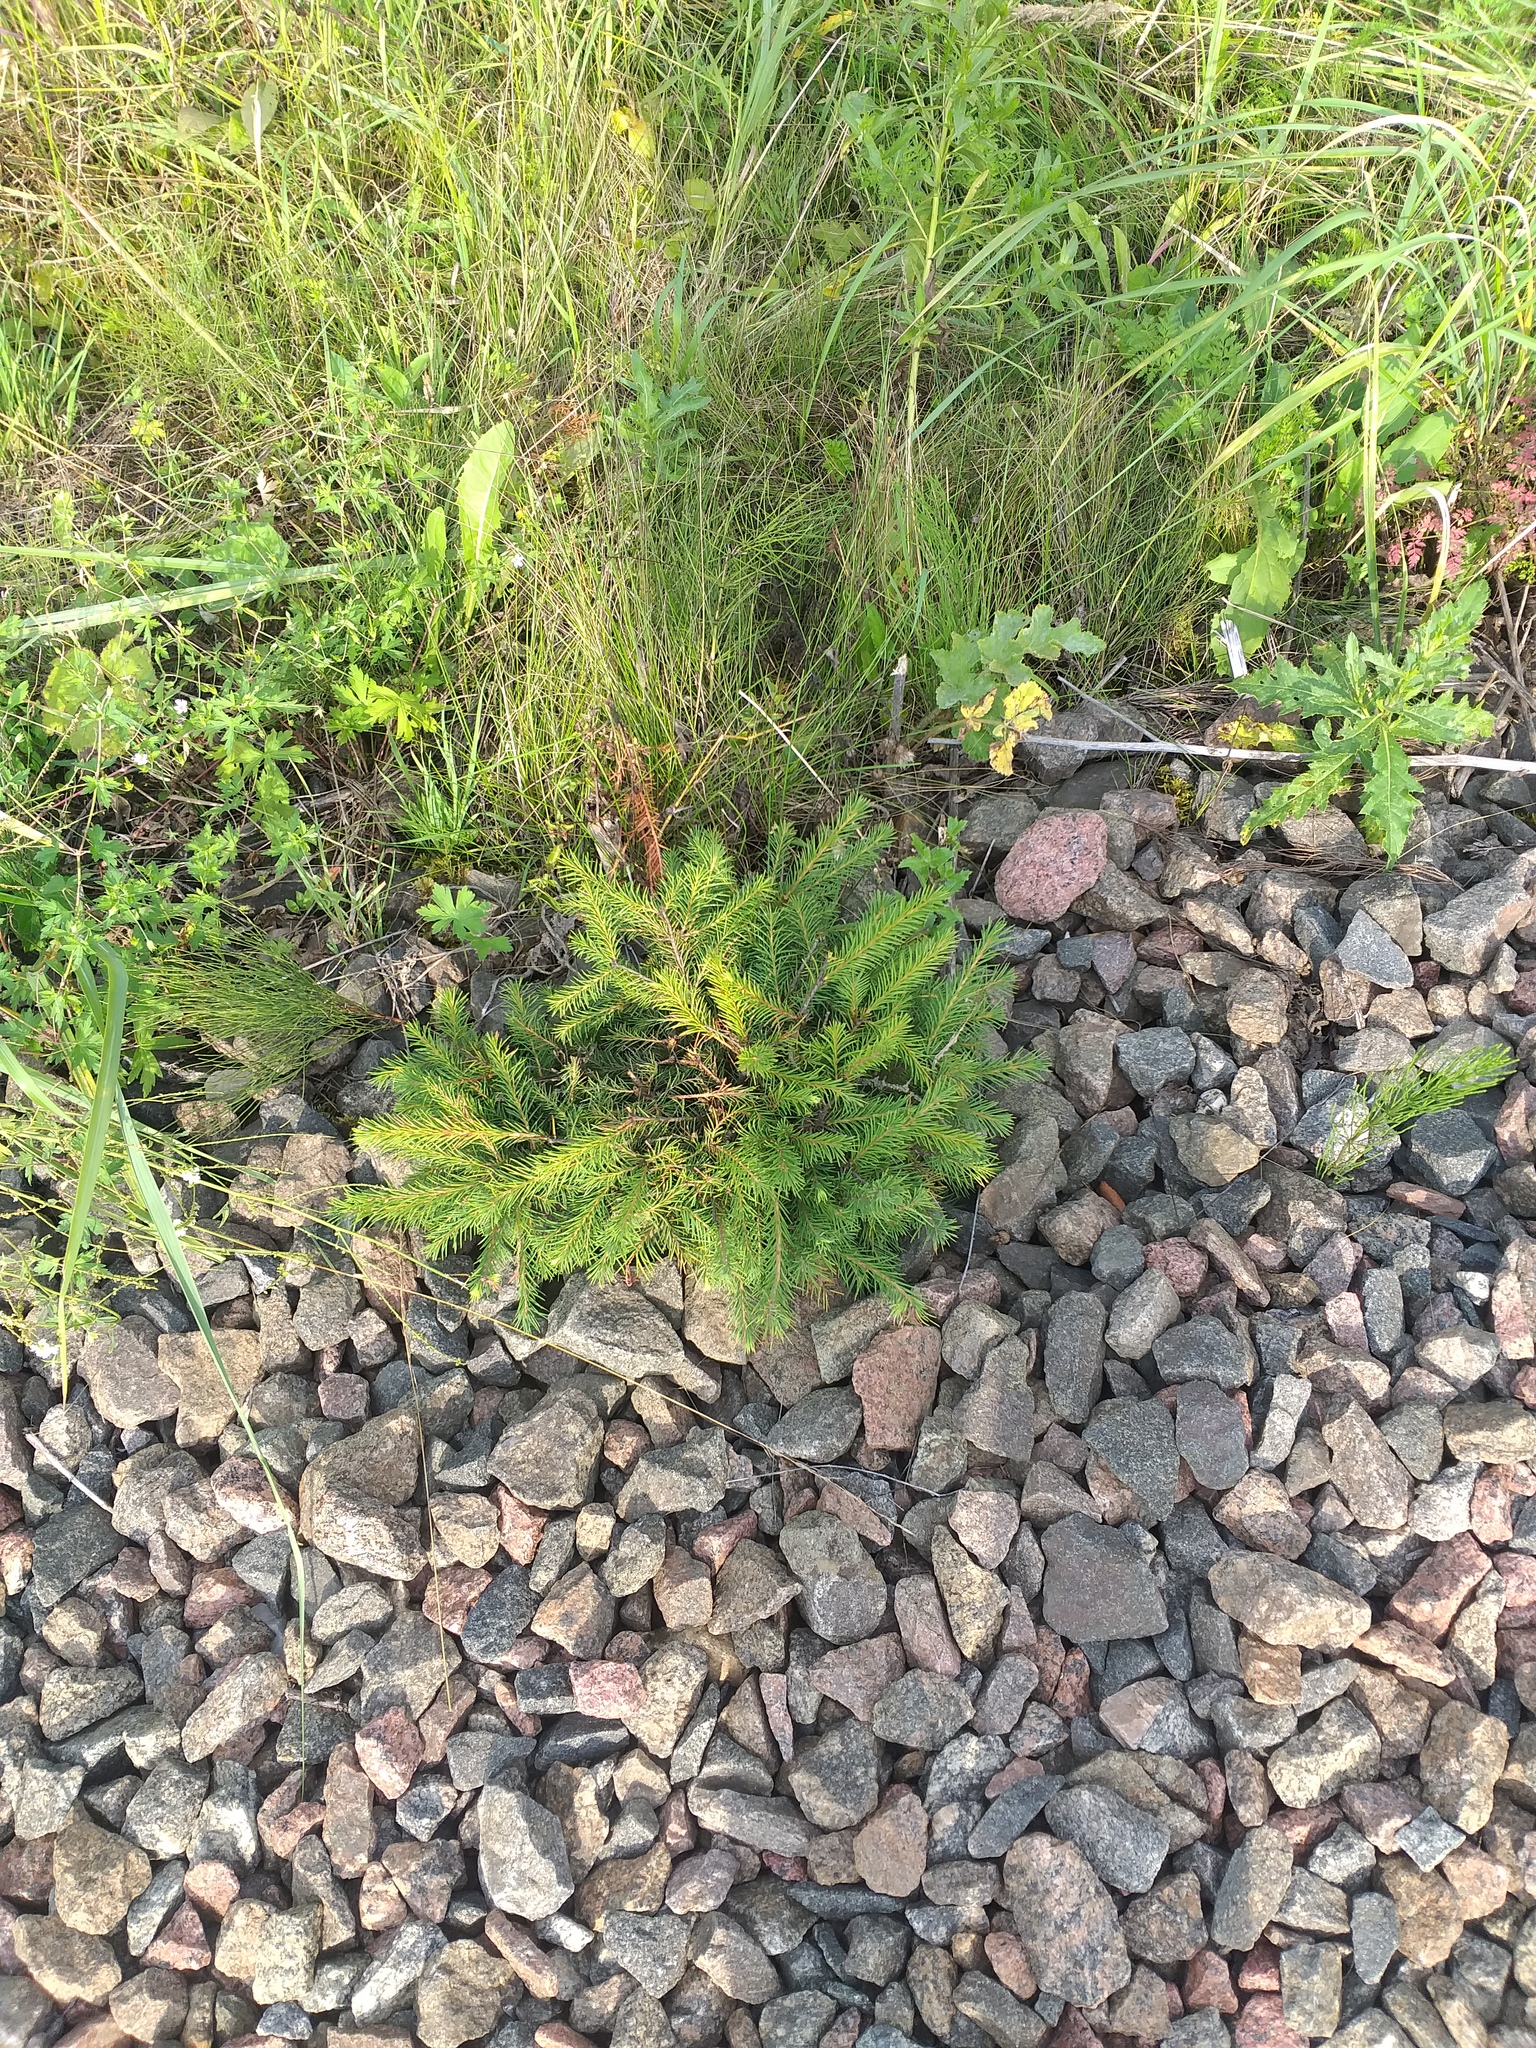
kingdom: Plantae
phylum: Tracheophyta
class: Pinopsida
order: Pinales
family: Pinaceae
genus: Picea
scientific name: Picea abies
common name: Norway spruce
